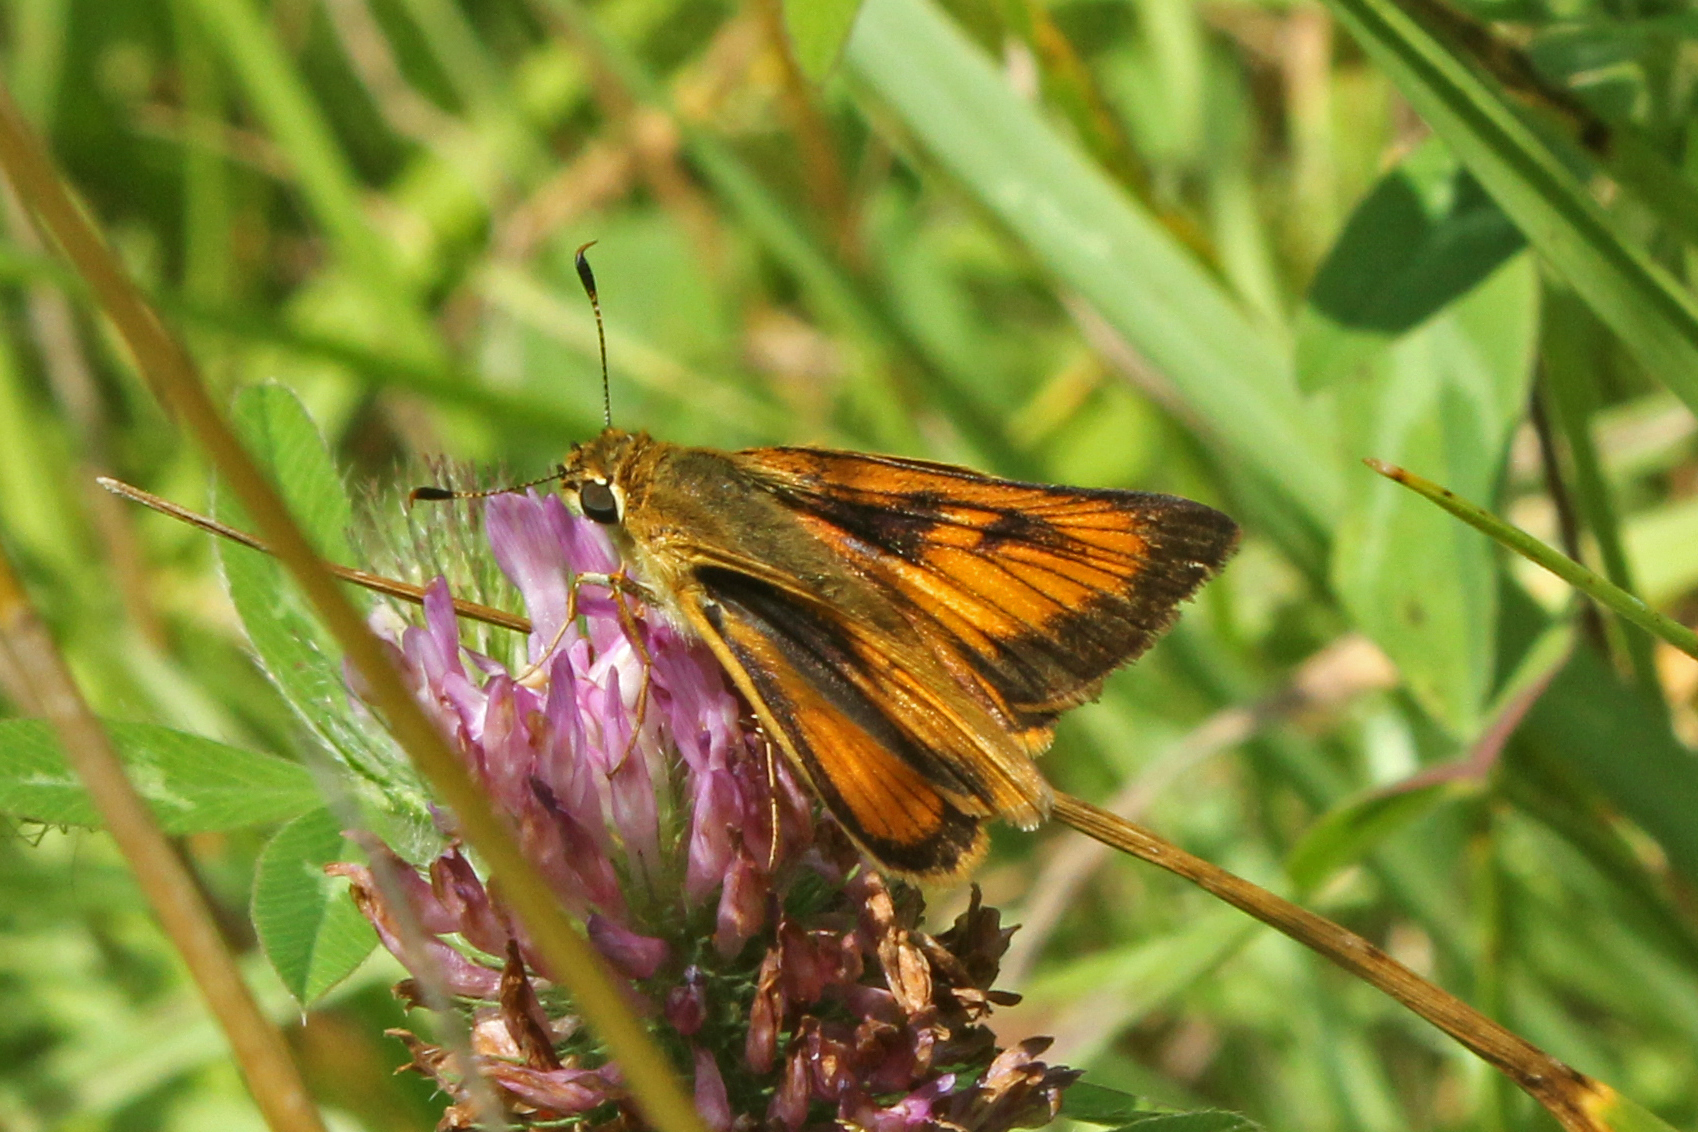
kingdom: Animalia
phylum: Arthropoda
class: Insecta
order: Lepidoptera
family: Hesperiidae
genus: Atrytone
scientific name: Atrytone delaware
